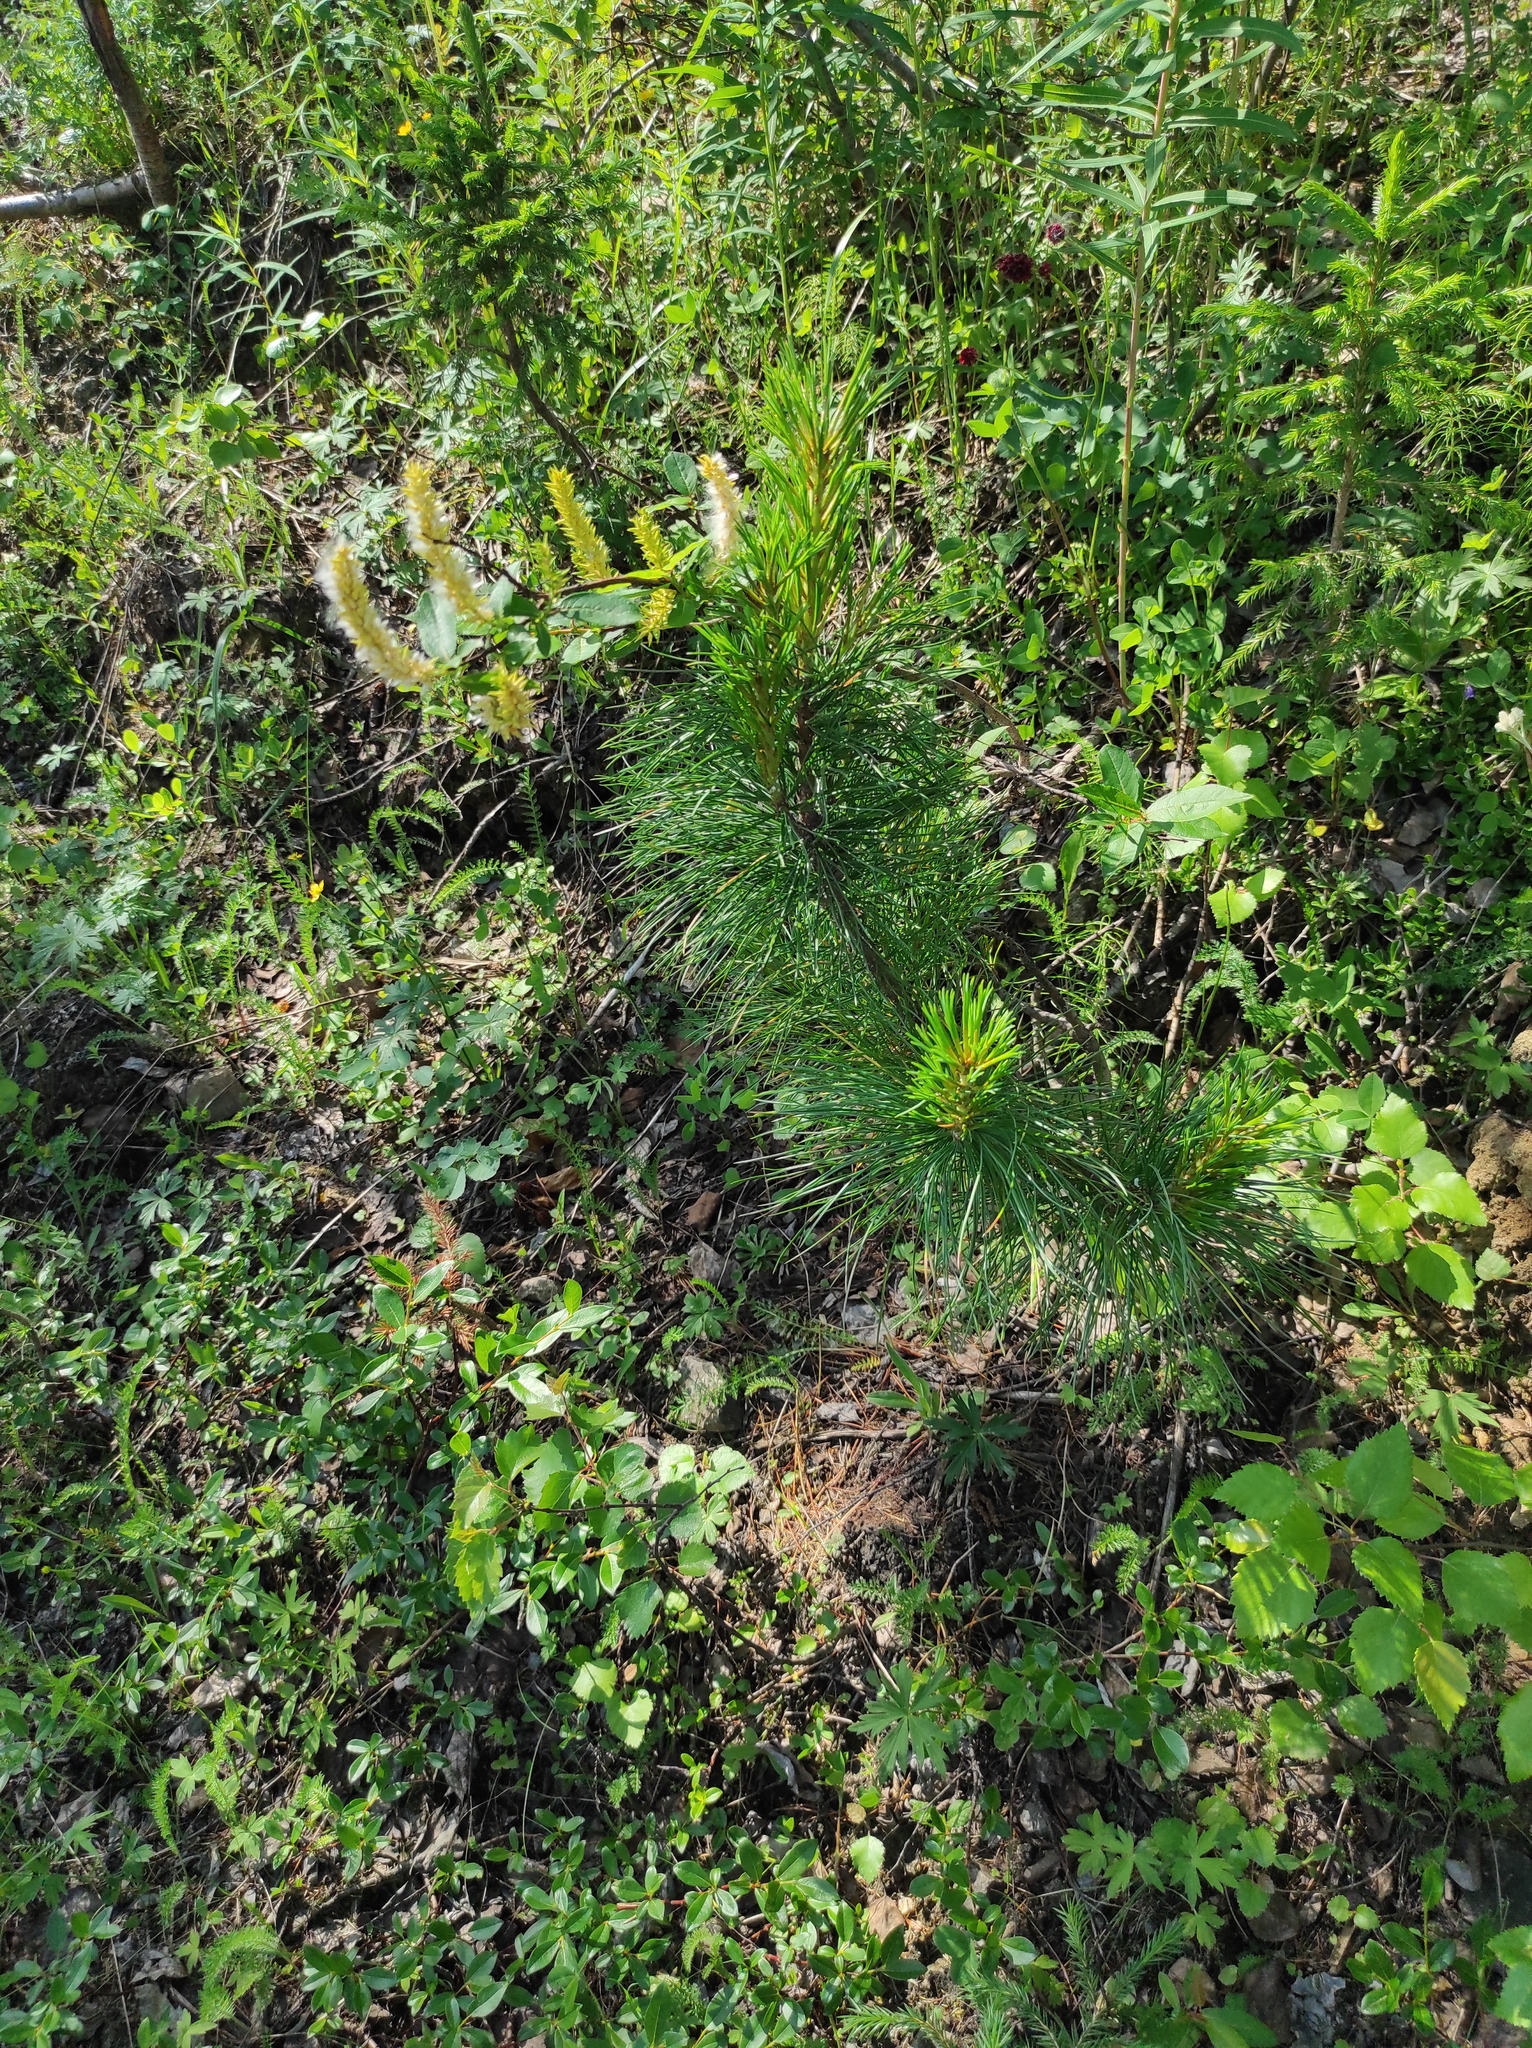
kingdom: Plantae
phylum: Tracheophyta
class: Pinopsida
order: Pinales
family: Pinaceae
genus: Pinus
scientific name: Pinus sibirica
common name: Siberian pine
